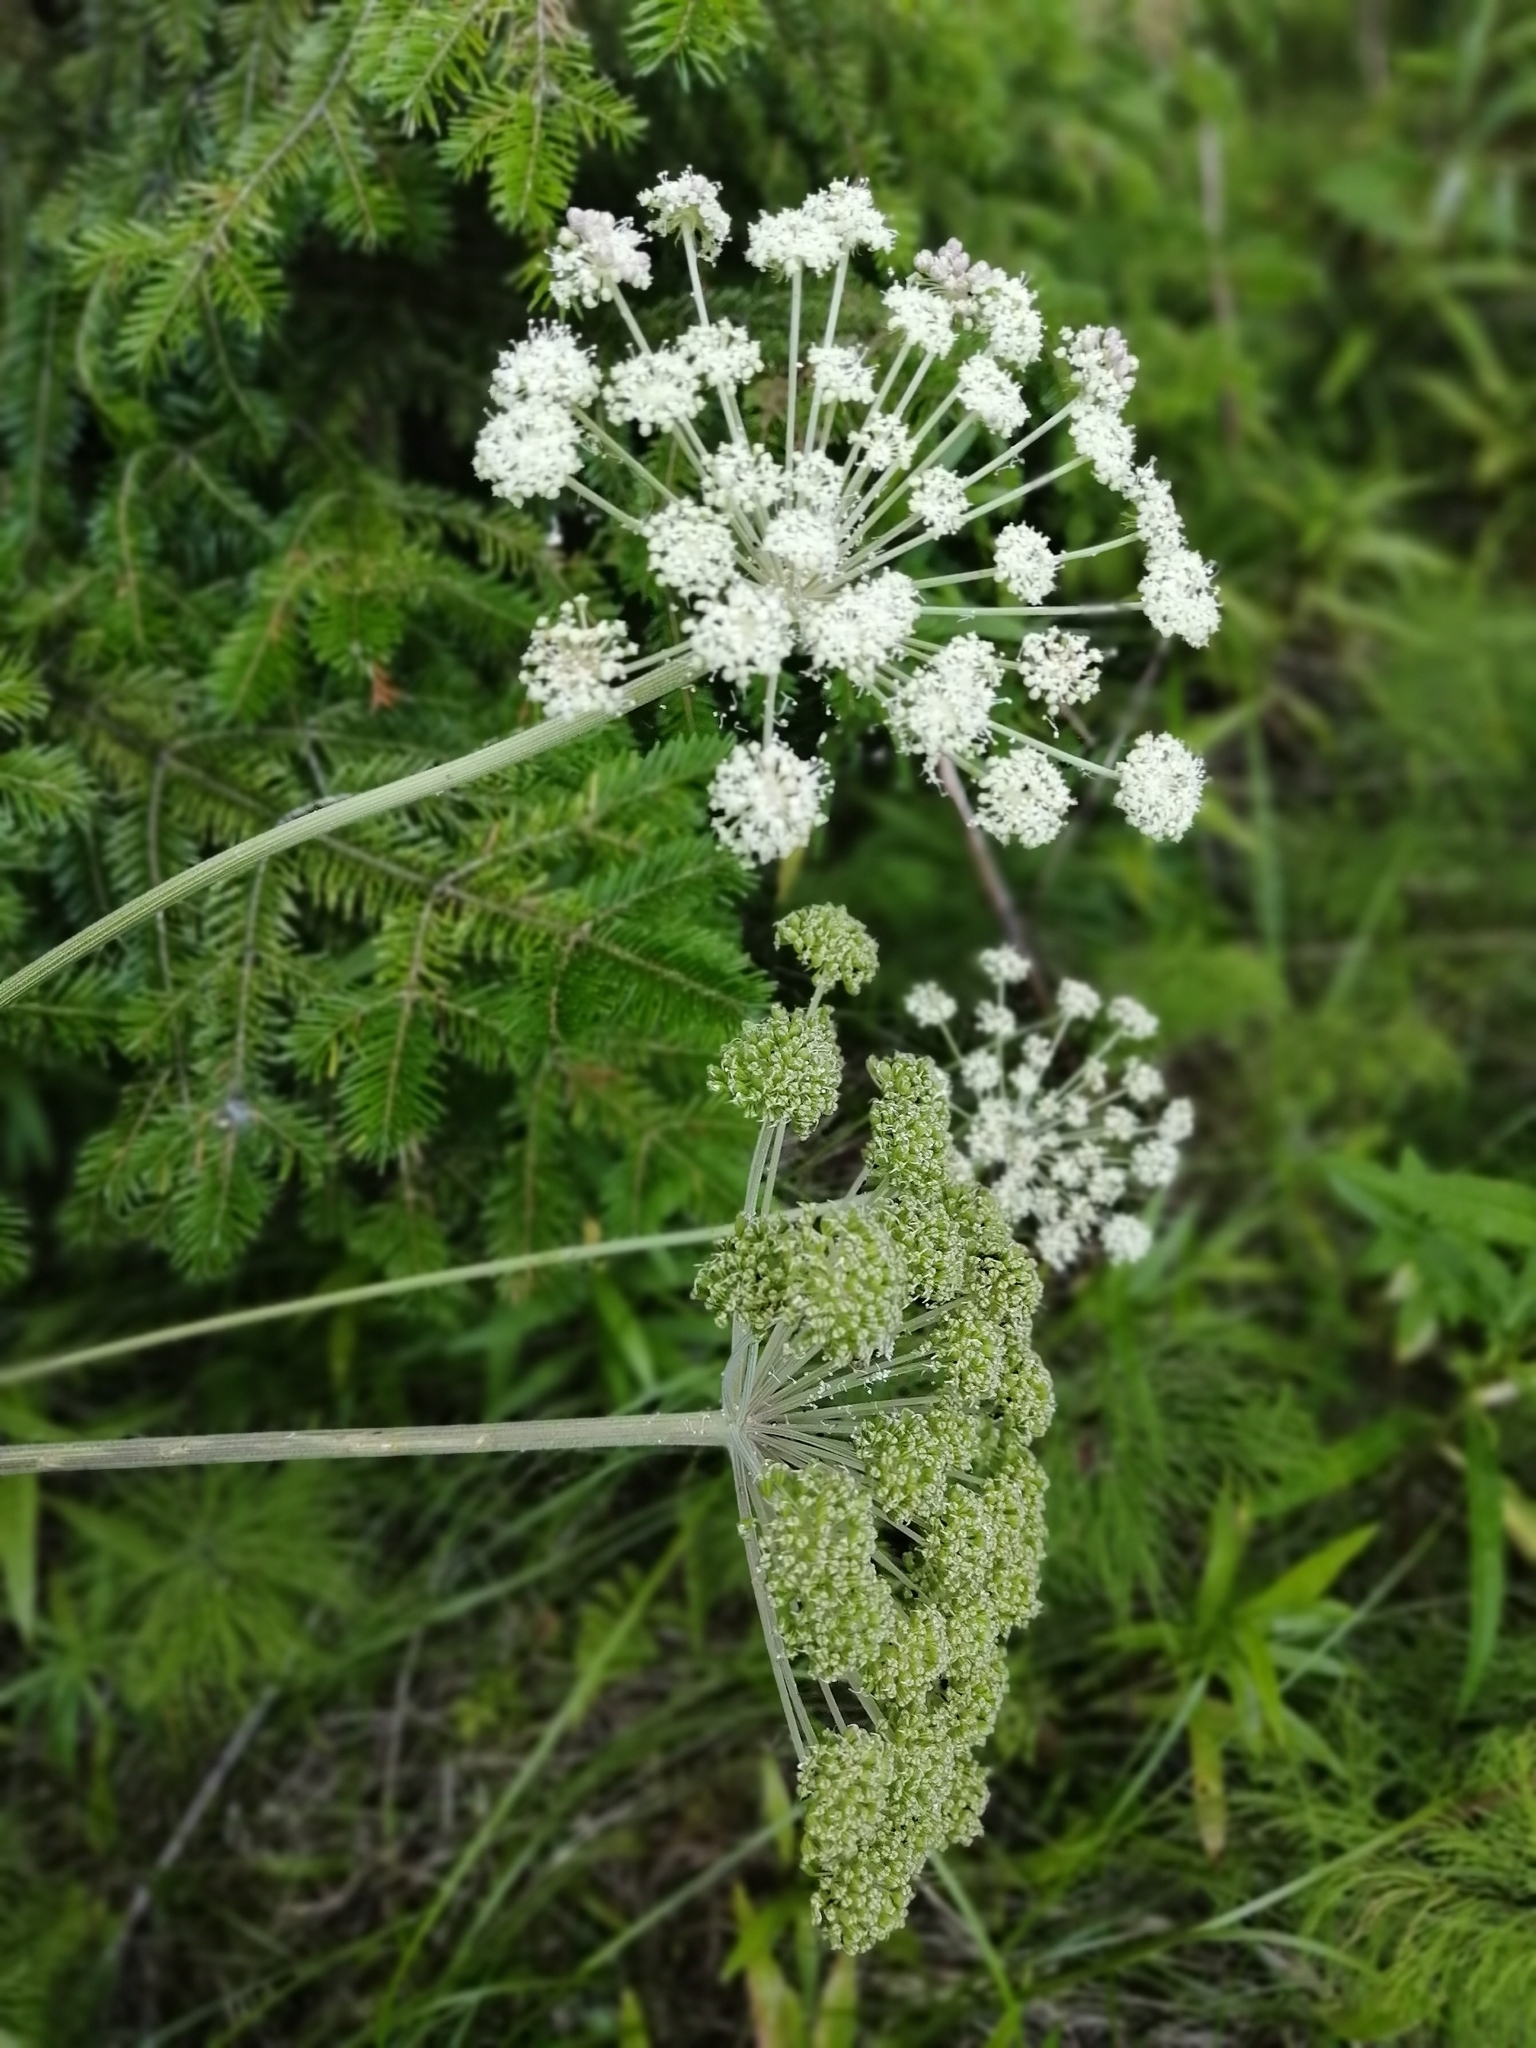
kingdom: Plantae
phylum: Tracheophyta
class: Magnoliopsida
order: Apiales
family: Apiaceae
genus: Angelica
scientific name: Angelica sylvestris
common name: Wild angelica
